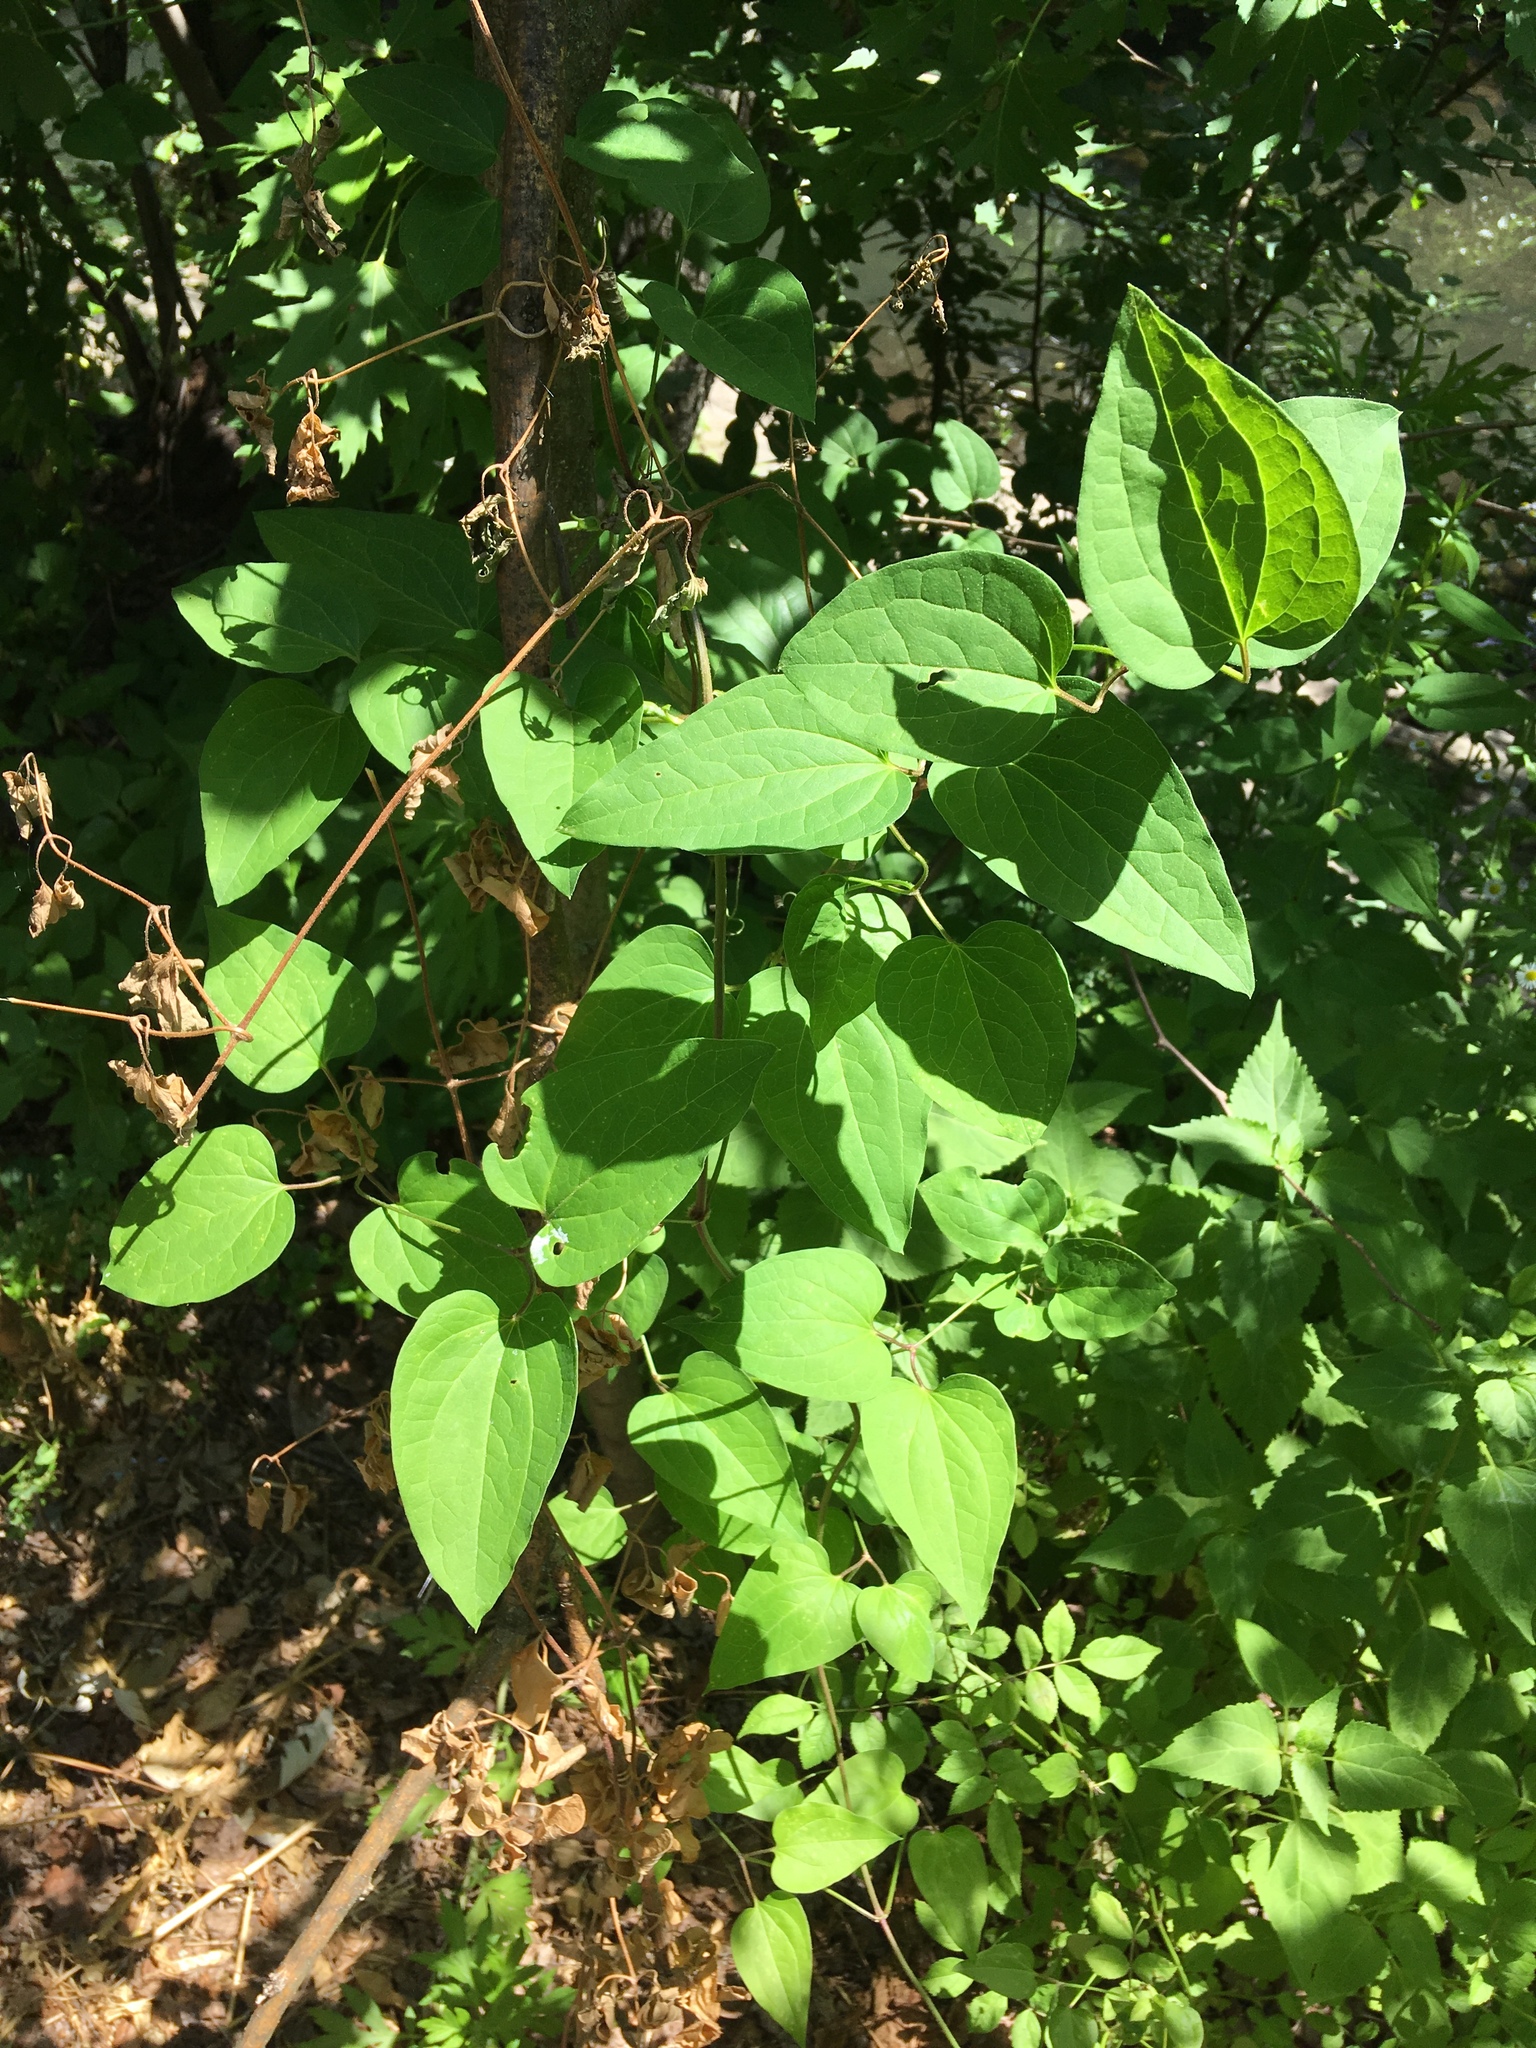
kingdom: Plantae
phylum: Tracheophyta
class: Magnoliopsida
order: Ranunculales
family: Ranunculaceae
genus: Clematis
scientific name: Clematis terniflora
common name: Sweet autumn clematis
